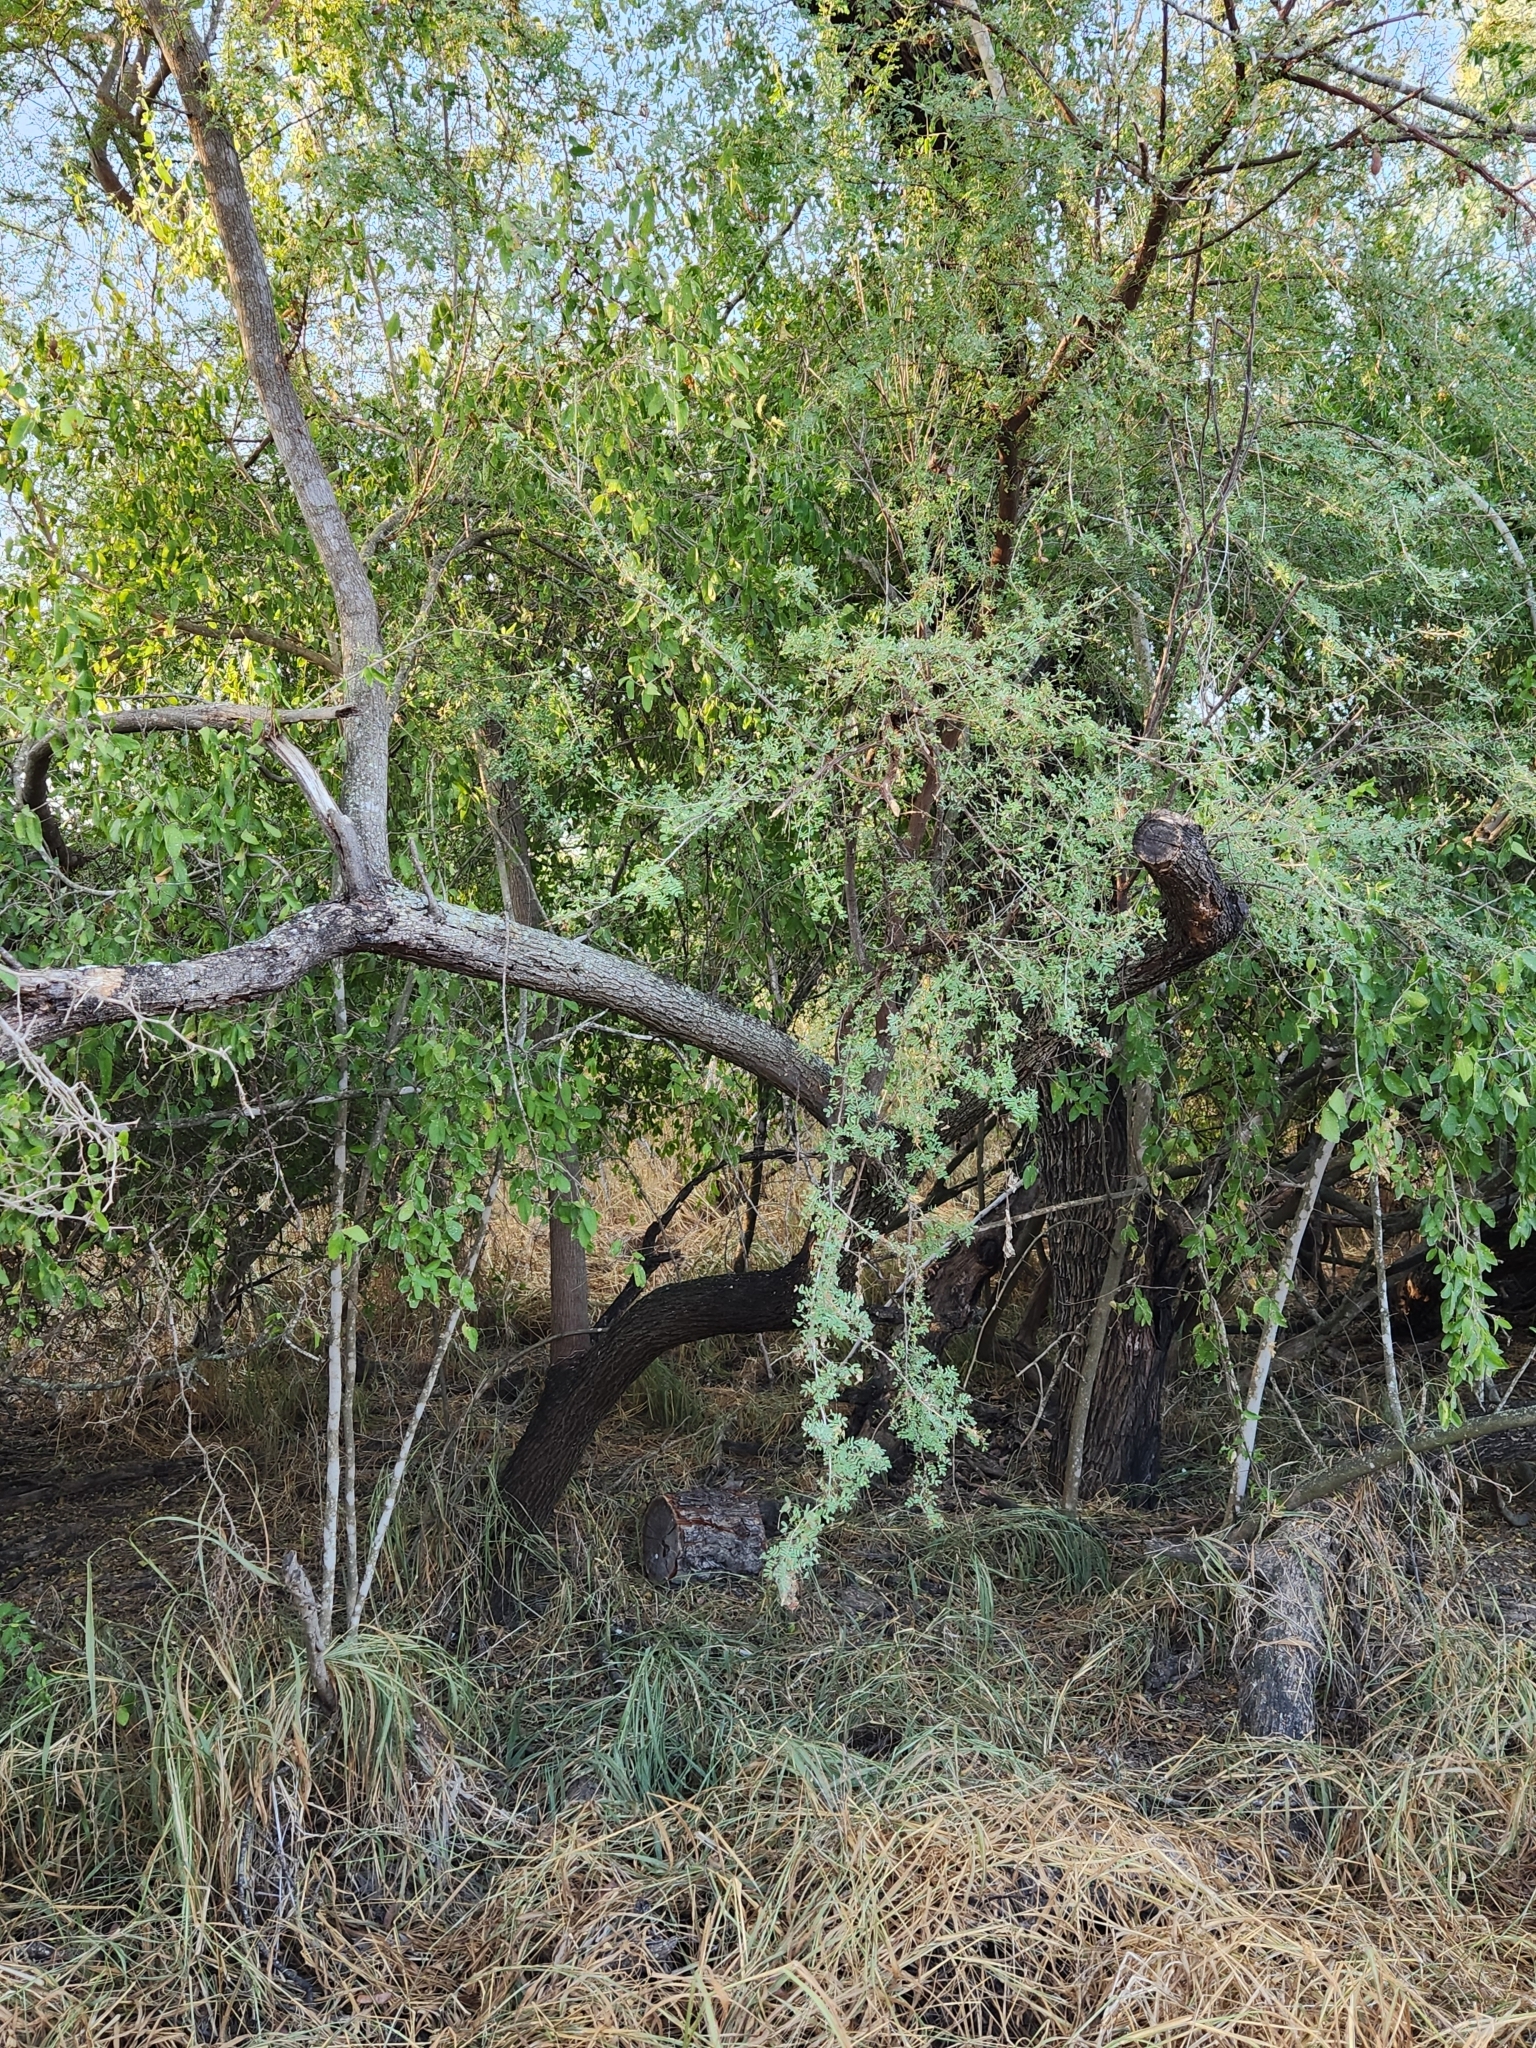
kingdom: Plantae
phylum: Tracheophyta
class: Magnoliopsida
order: Fabales
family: Fabaceae
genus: Senegalia
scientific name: Senegalia wrightii
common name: Texas cat's-claw
